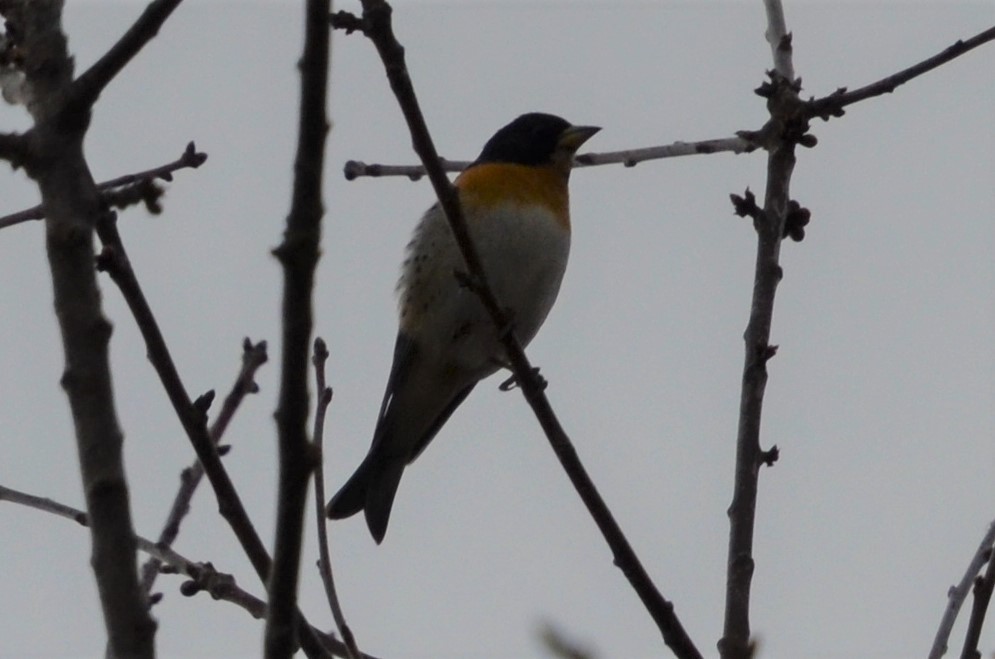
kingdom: Animalia
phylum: Chordata
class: Aves
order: Passeriformes
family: Fringillidae
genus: Fringilla
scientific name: Fringilla montifringilla
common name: Brambling
